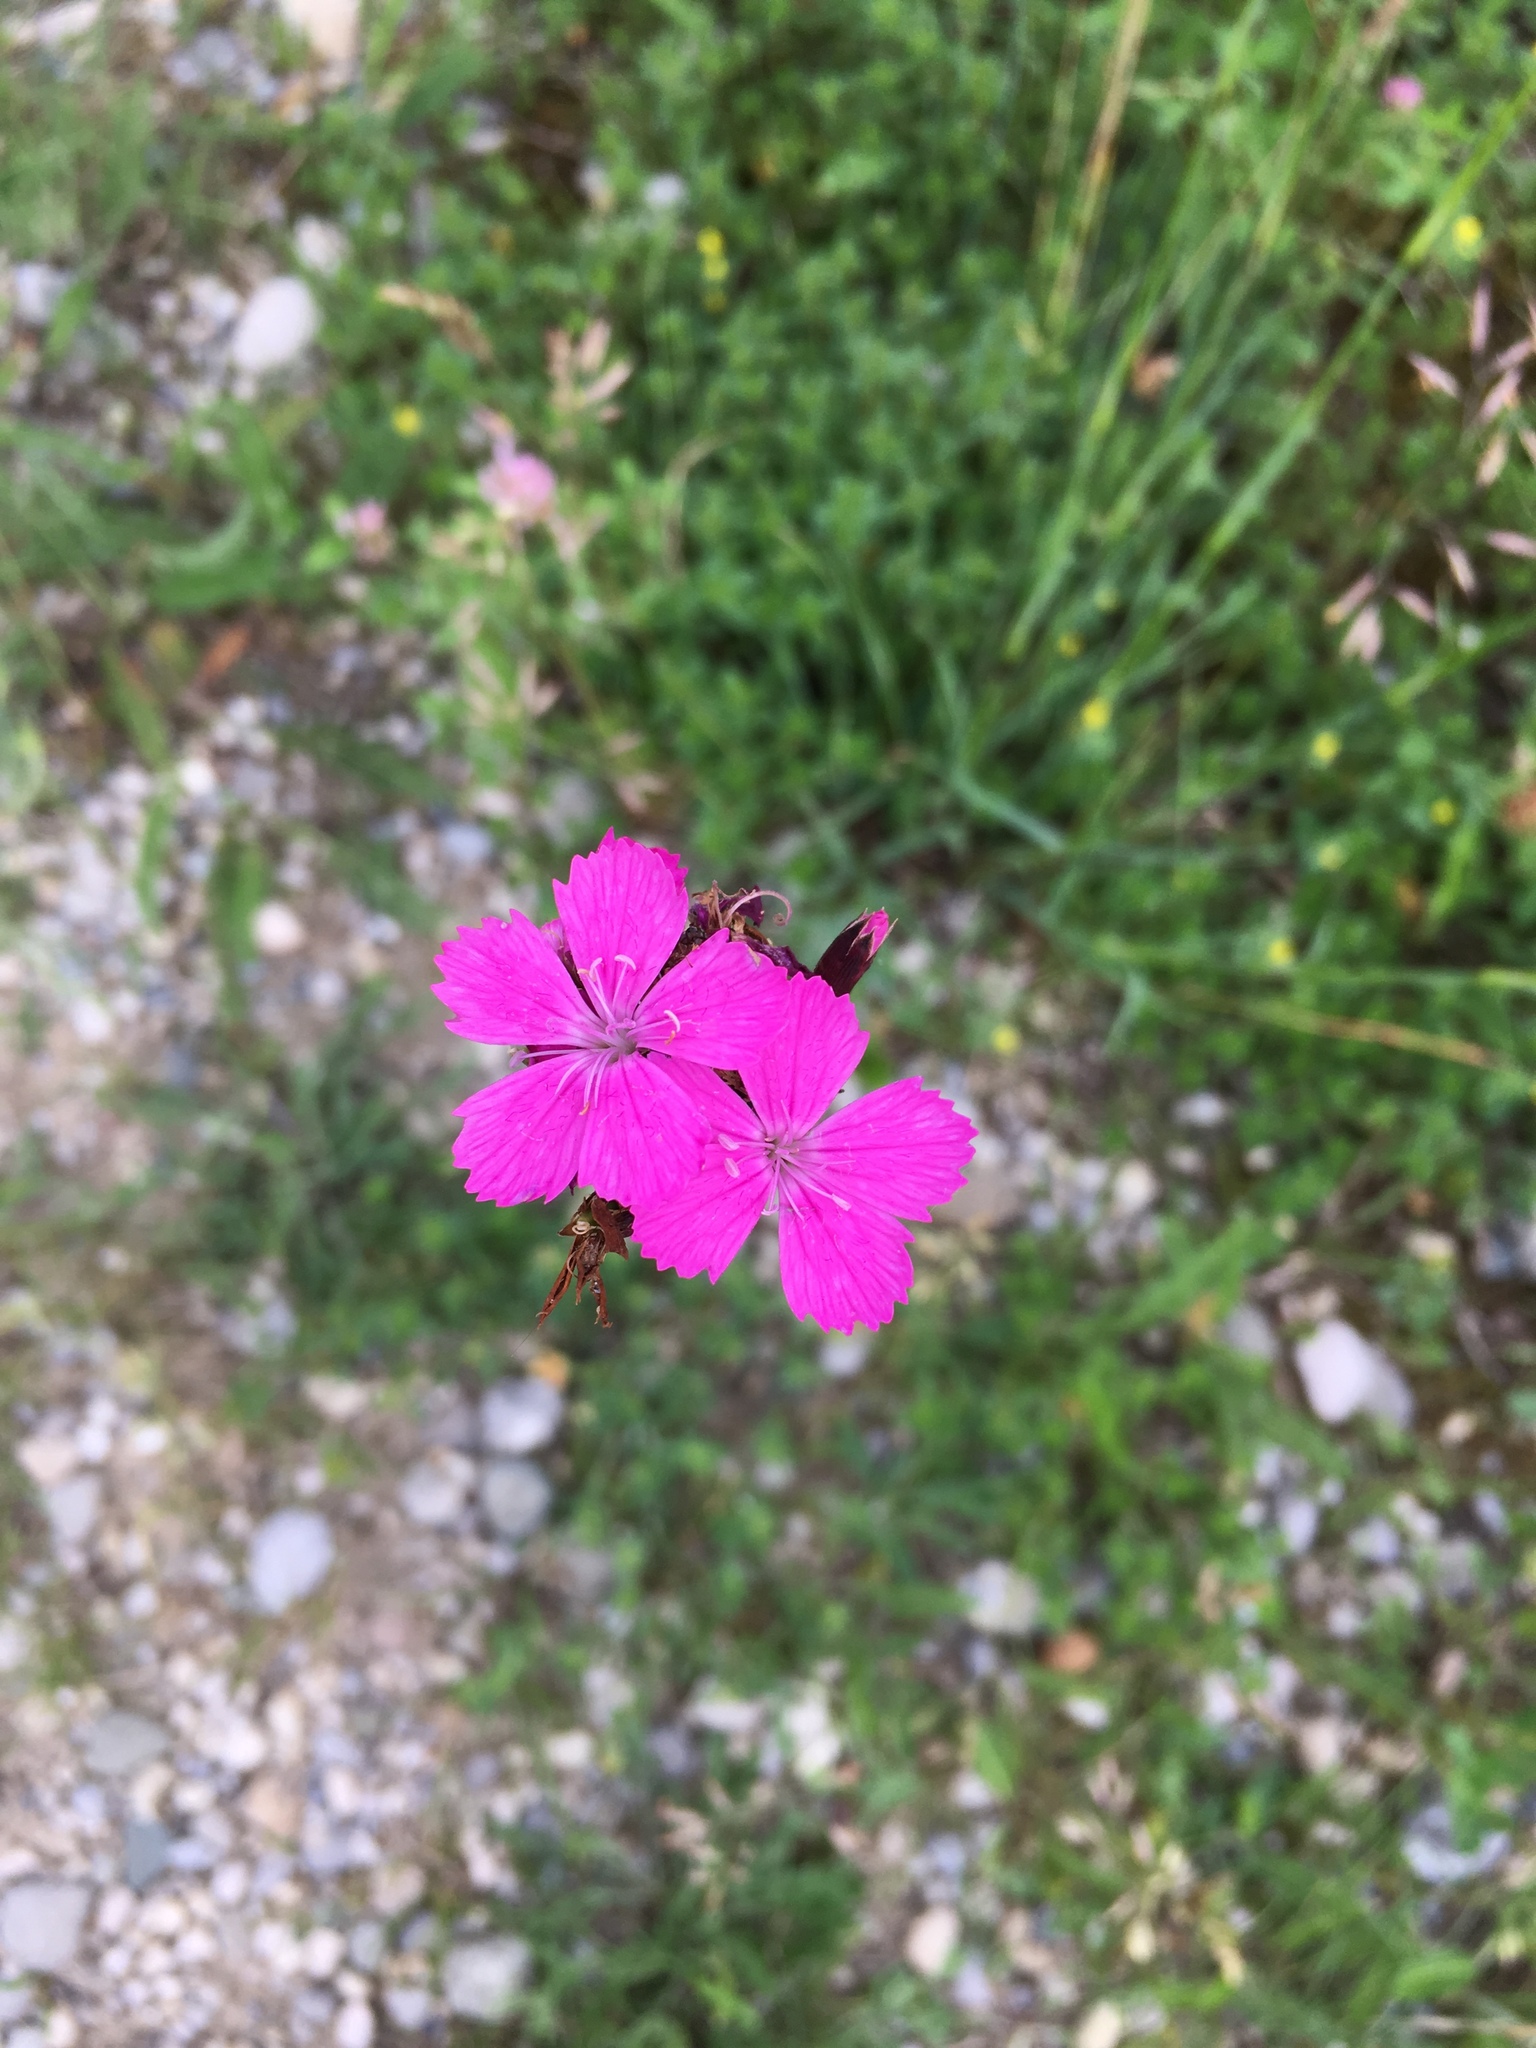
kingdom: Plantae
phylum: Tracheophyta
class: Magnoliopsida
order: Caryophyllales
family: Caryophyllaceae
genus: Dianthus
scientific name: Dianthus carthusianorum
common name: Carthusian pink
